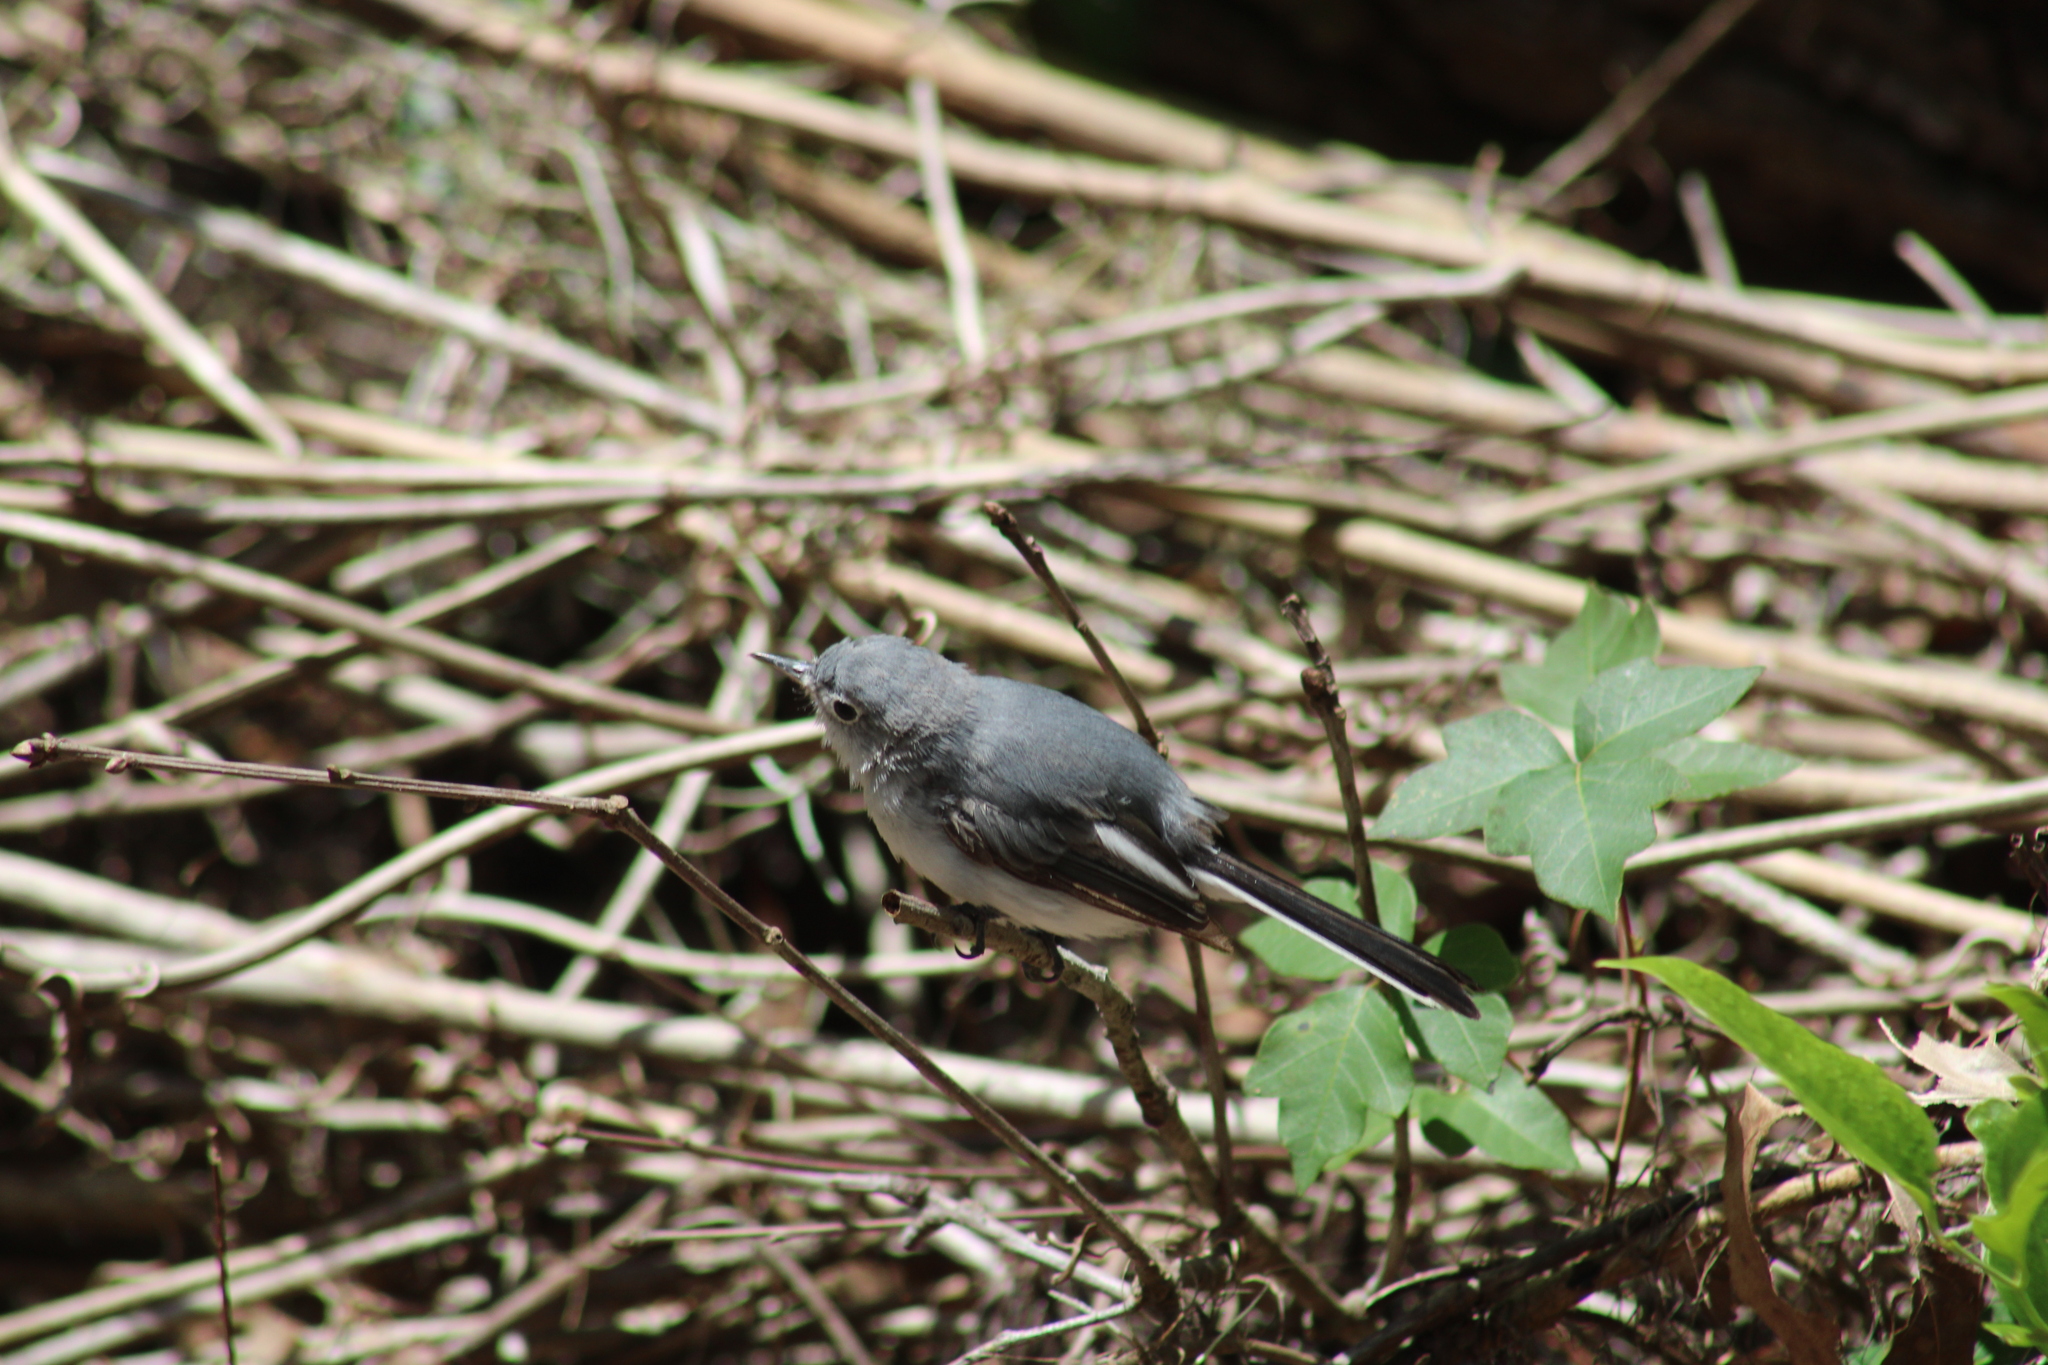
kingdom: Animalia
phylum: Chordata
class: Aves
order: Passeriformes
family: Polioptilidae
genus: Polioptila
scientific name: Polioptila caerulea
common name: Blue-gray gnatcatcher
